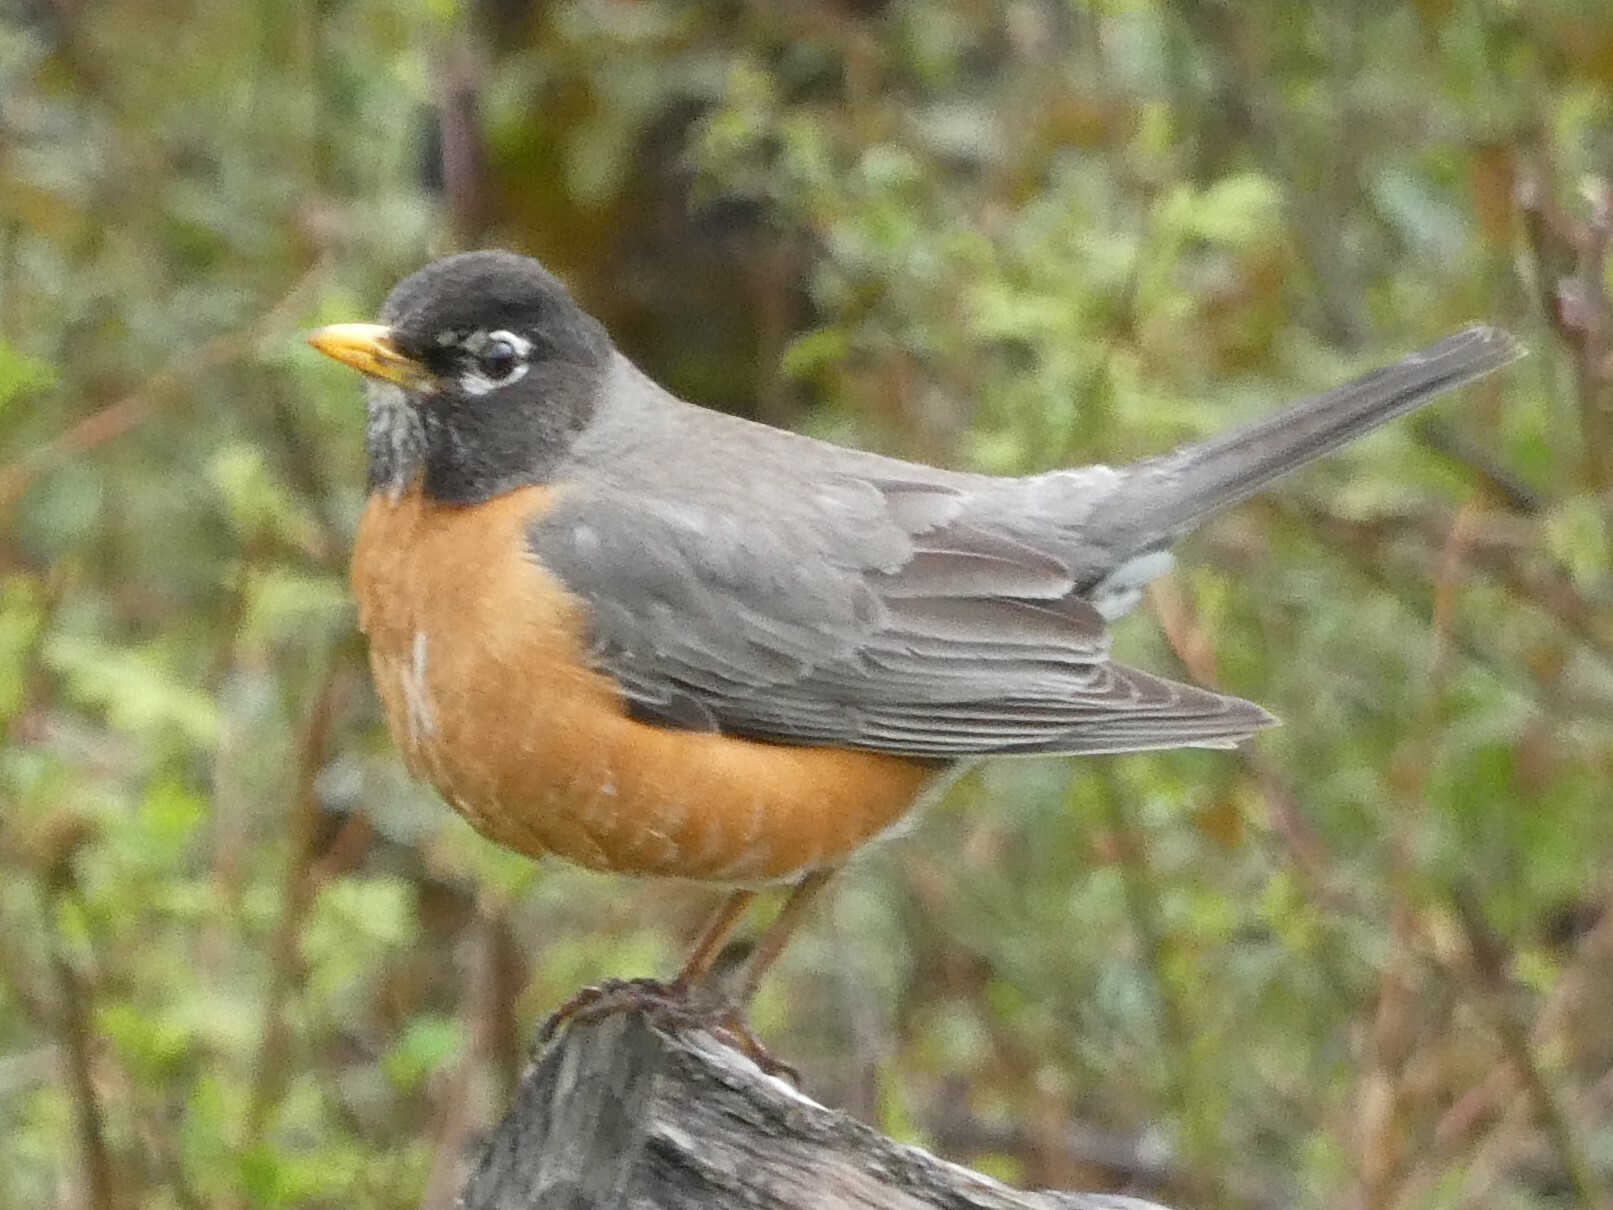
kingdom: Animalia
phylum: Chordata
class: Aves
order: Passeriformes
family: Turdidae
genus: Turdus
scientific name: Turdus migratorius
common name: American robin
